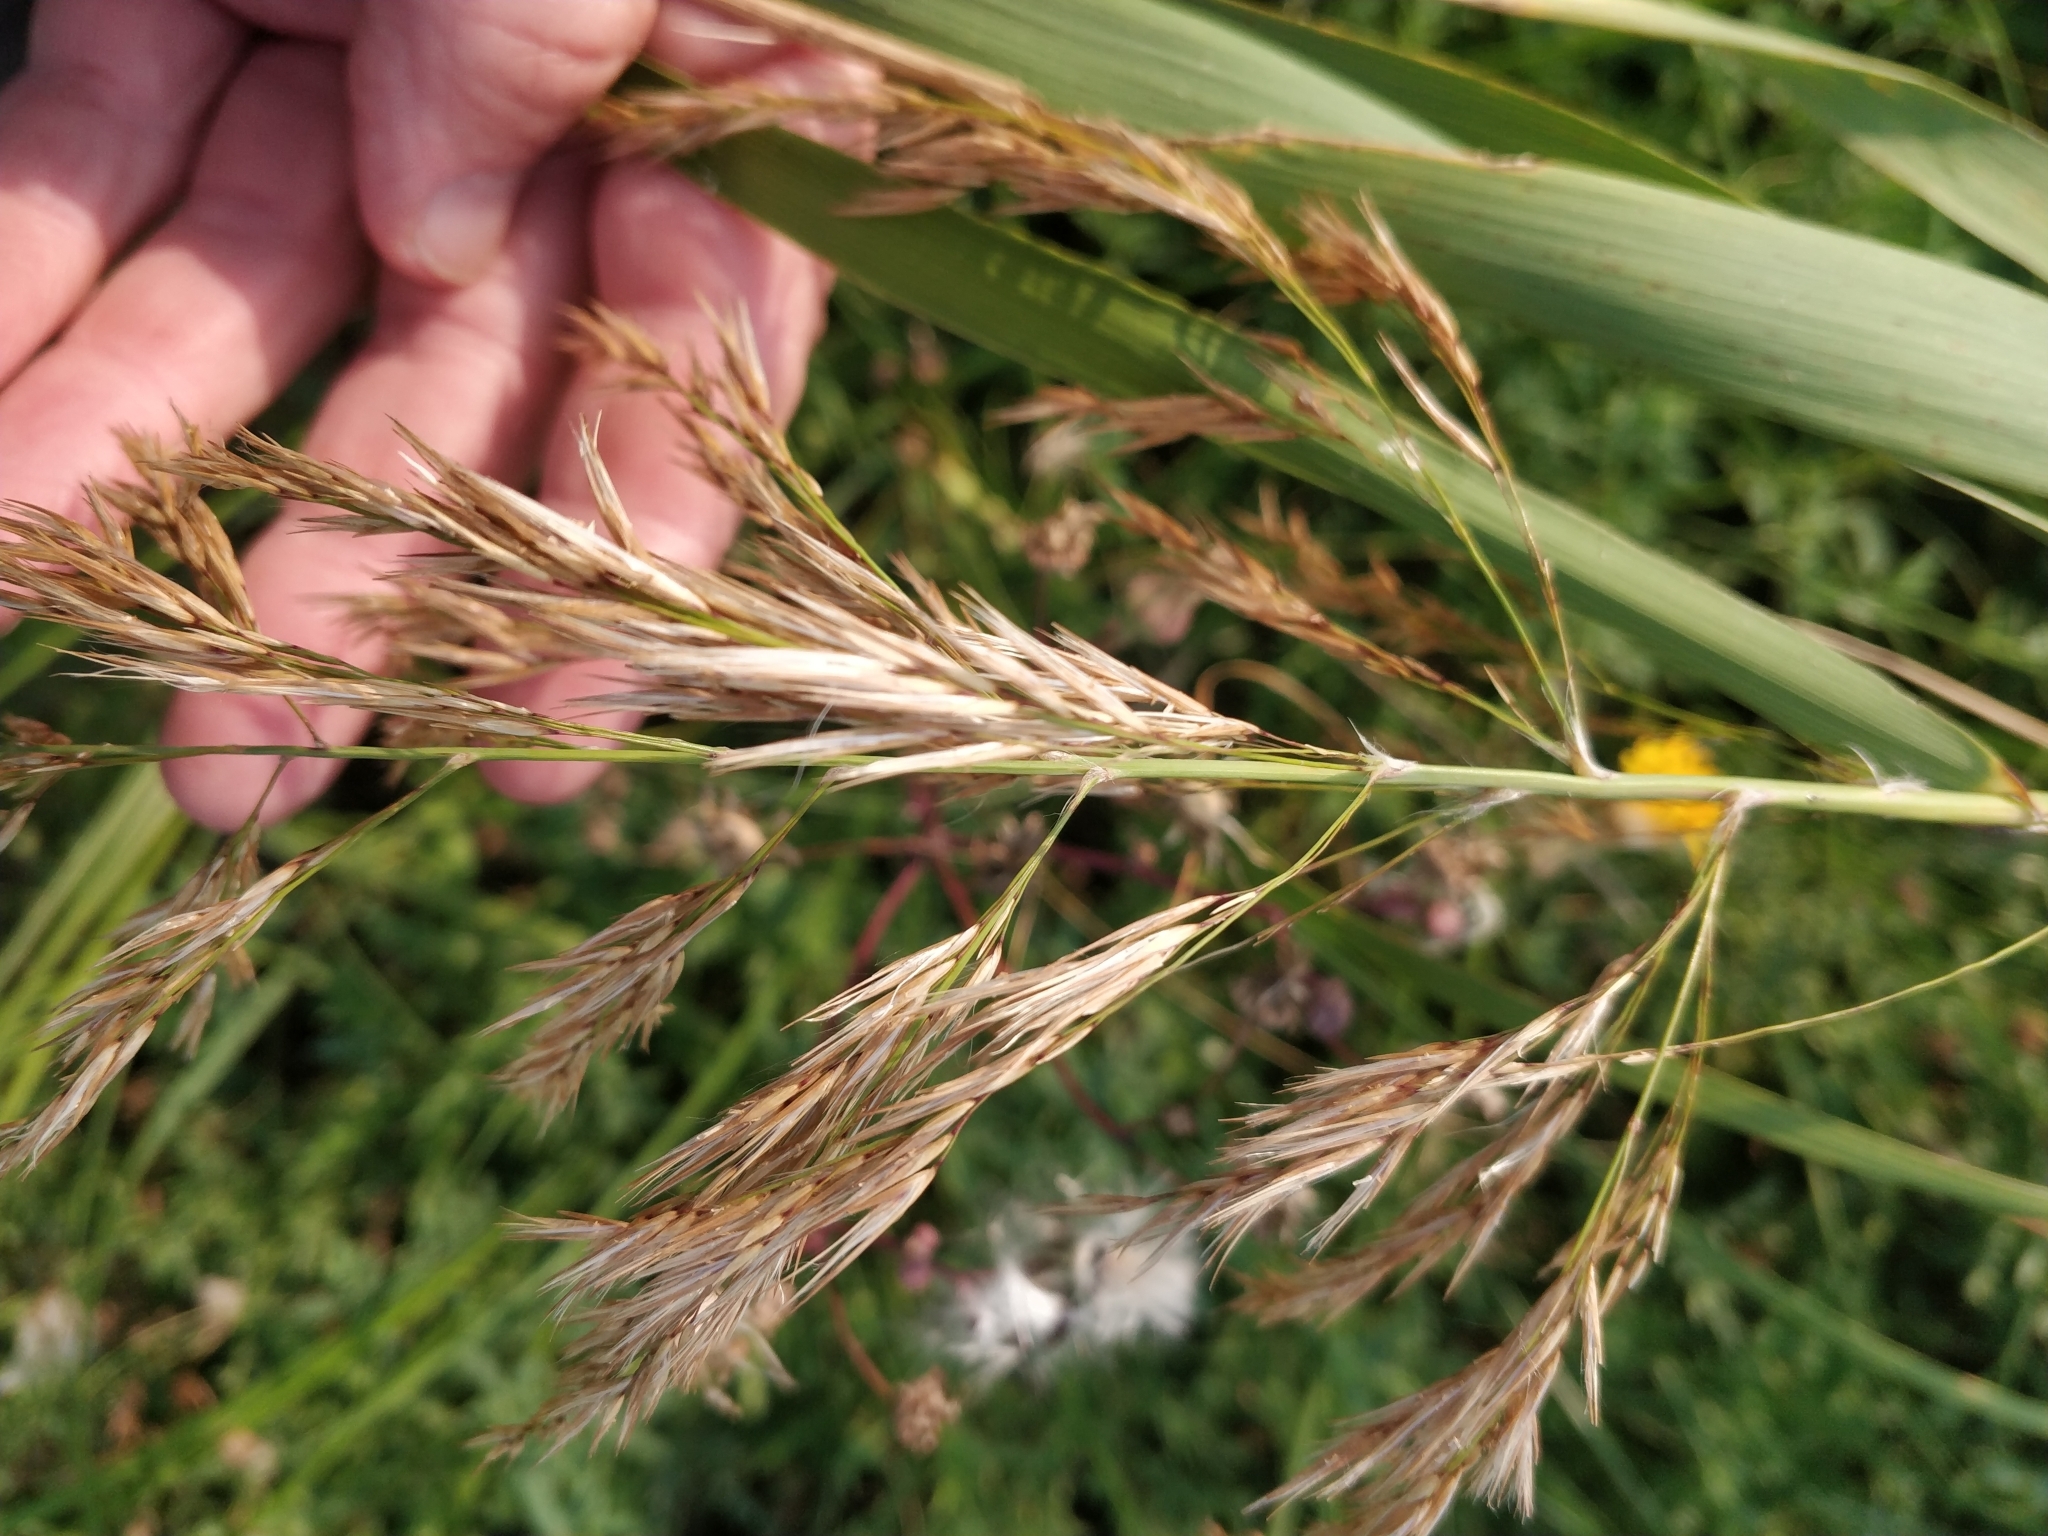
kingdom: Plantae
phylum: Tracheophyta
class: Liliopsida
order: Poales
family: Poaceae
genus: Phragmites
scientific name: Phragmites australis
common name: Common reed
